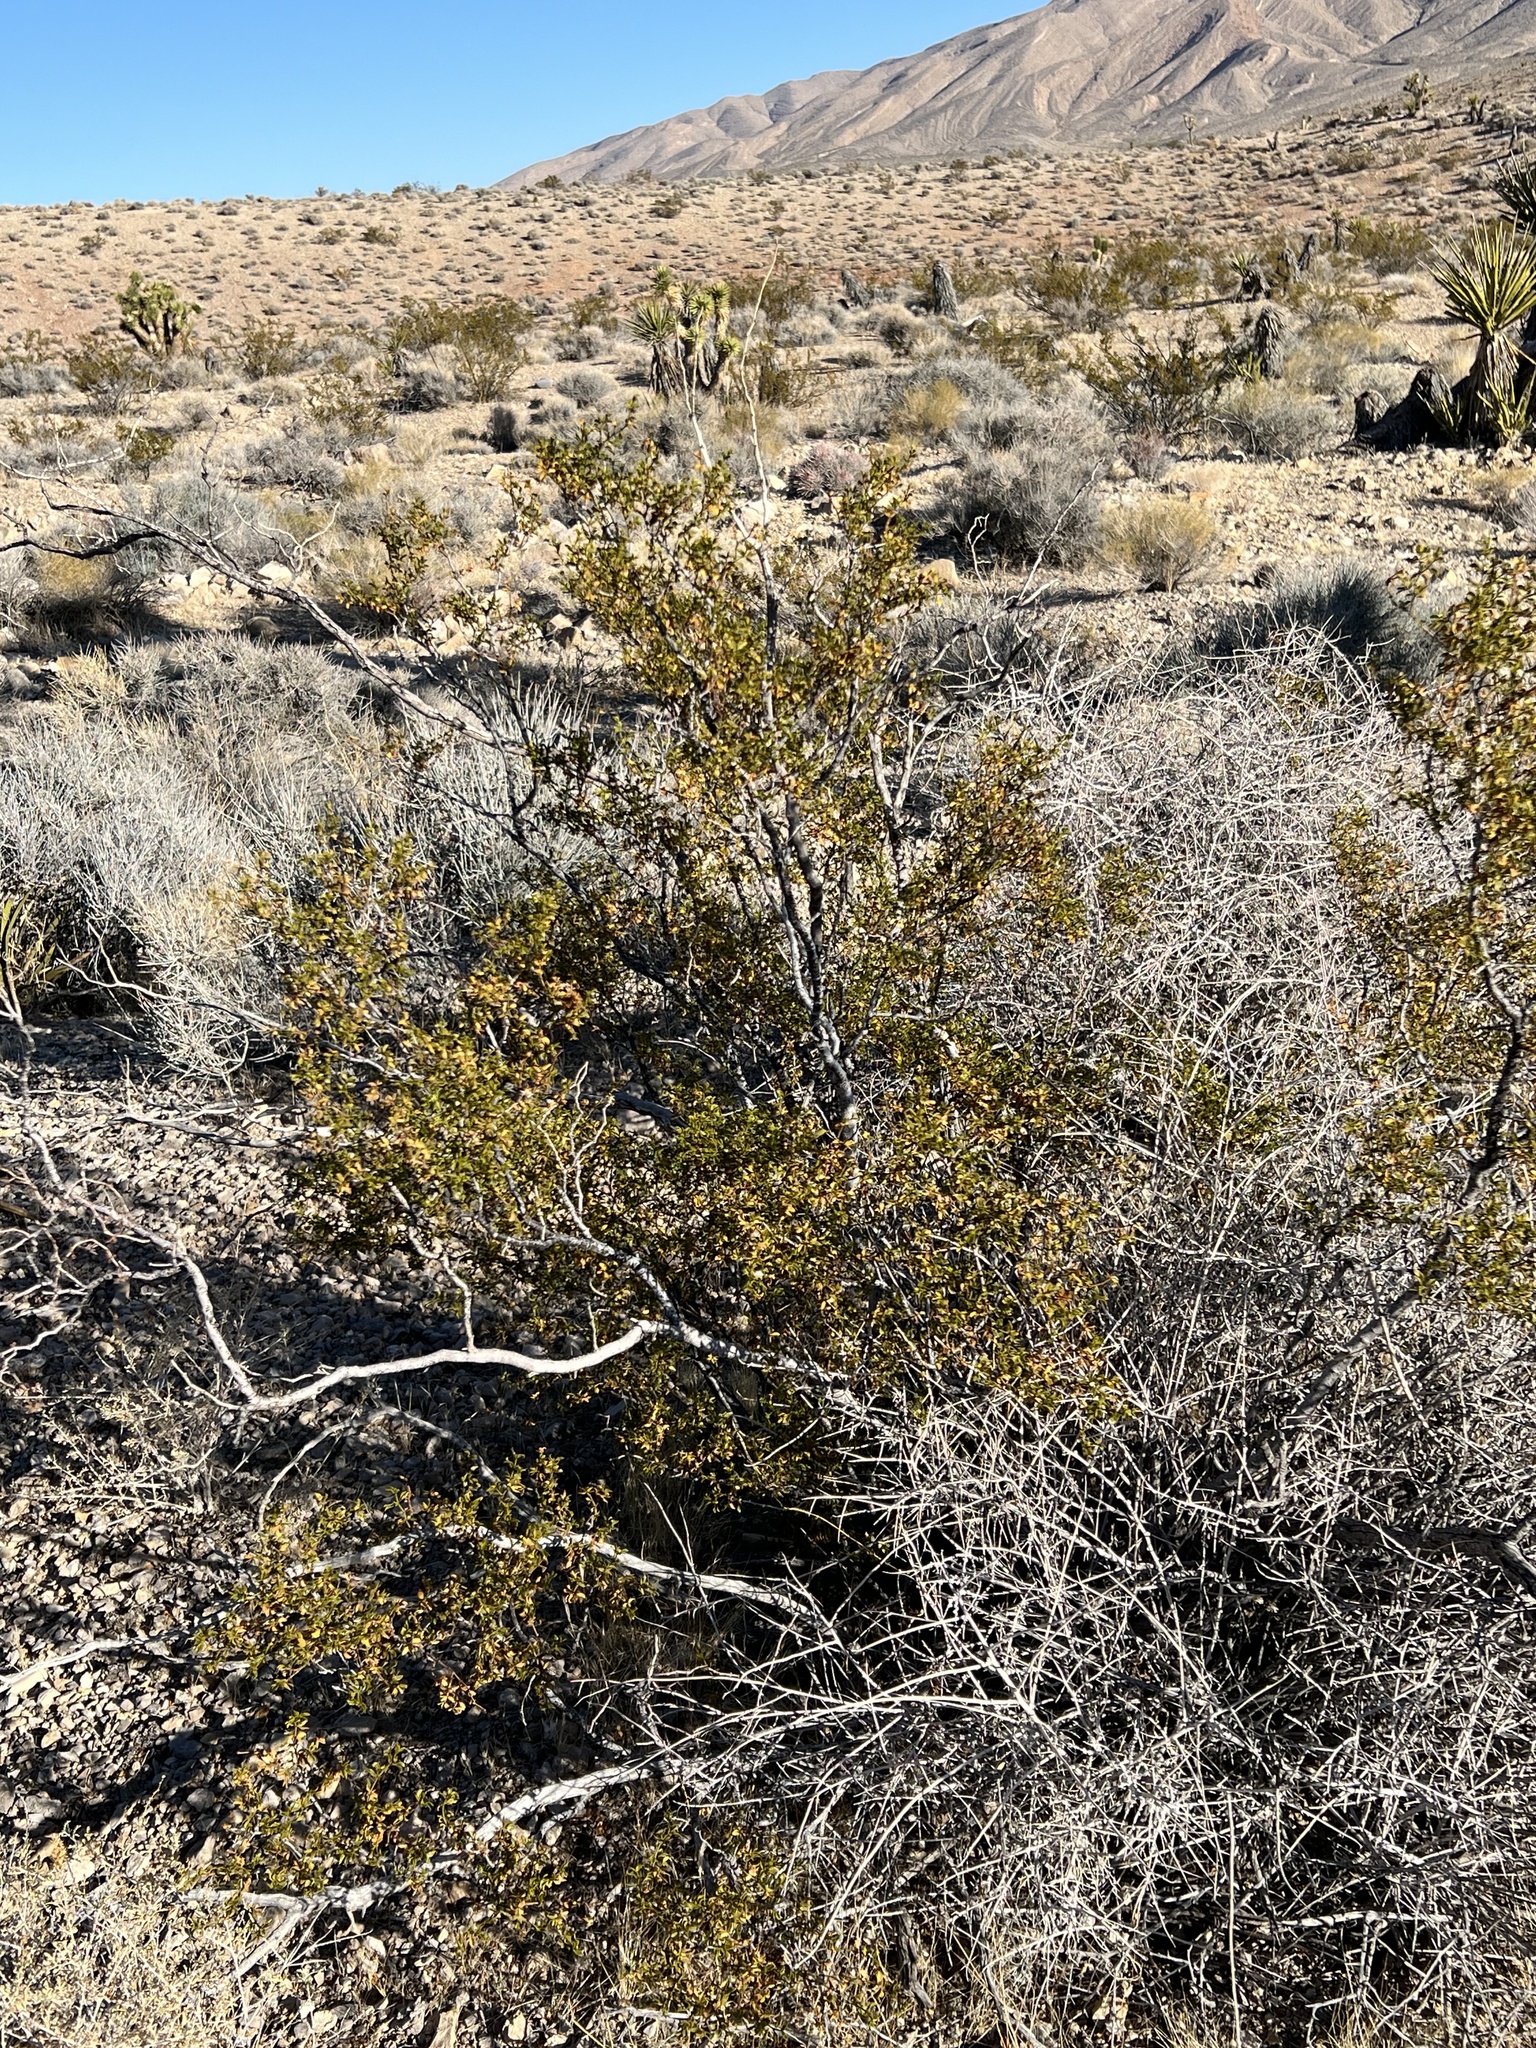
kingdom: Plantae
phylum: Tracheophyta
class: Magnoliopsida
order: Zygophyllales
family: Zygophyllaceae
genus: Larrea
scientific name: Larrea tridentata
